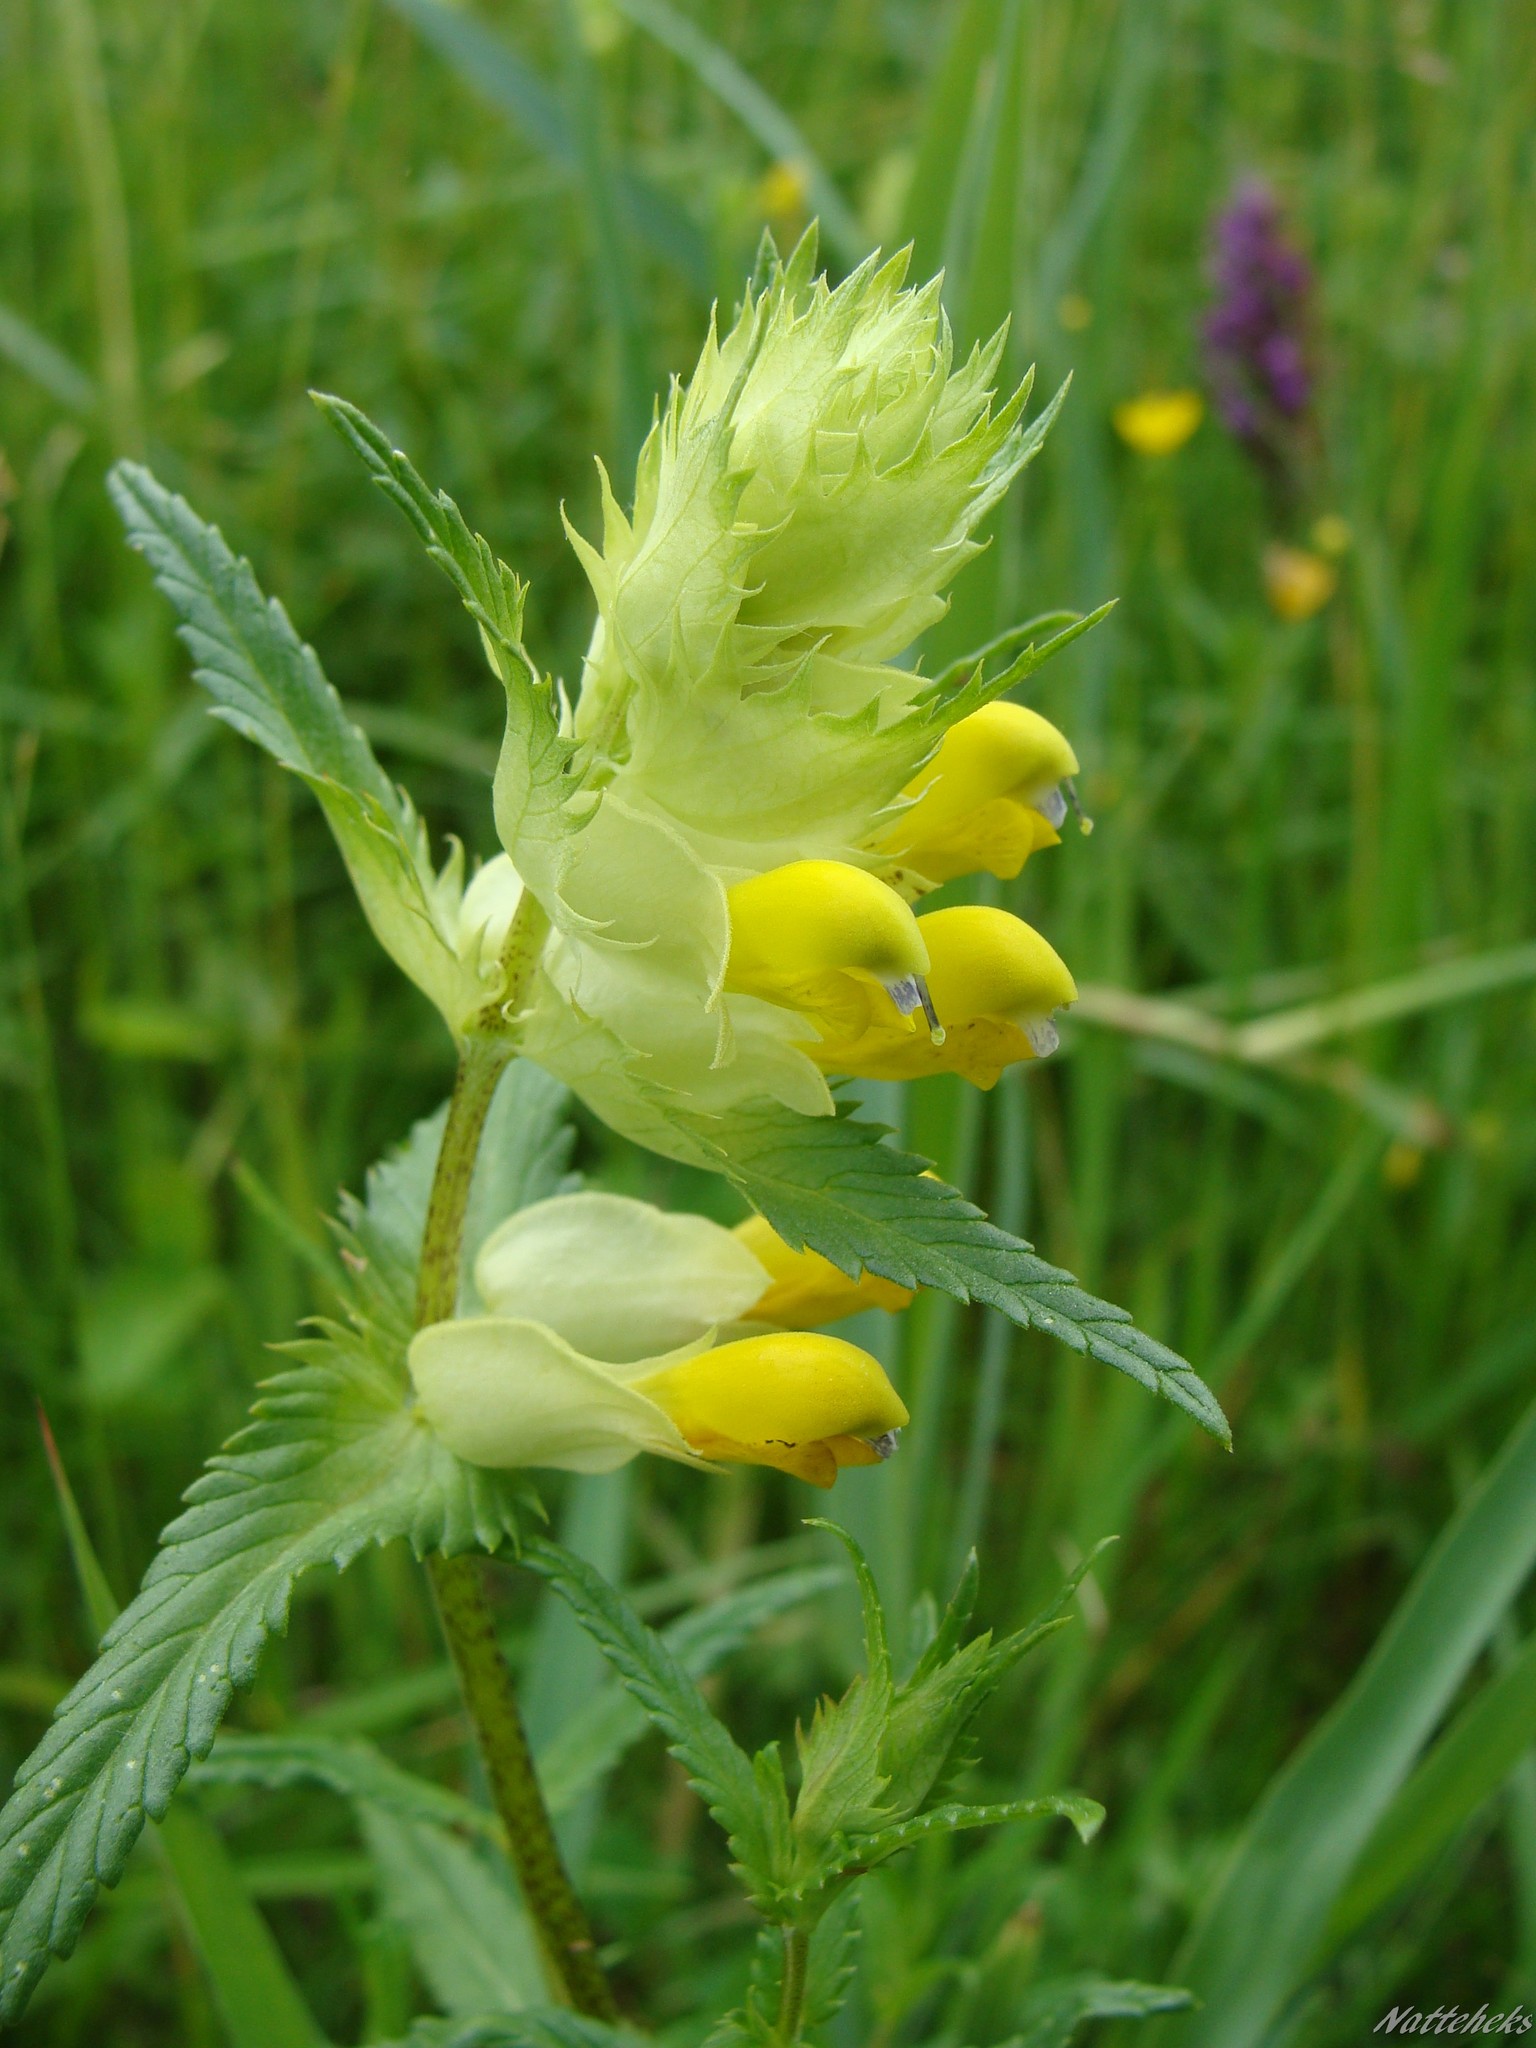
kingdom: Plantae
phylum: Tracheophyta
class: Magnoliopsida
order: Lamiales
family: Orobanchaceae
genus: Rhinanthus
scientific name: Rhinanthus serotinus
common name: Late-flowering yellow rattle
